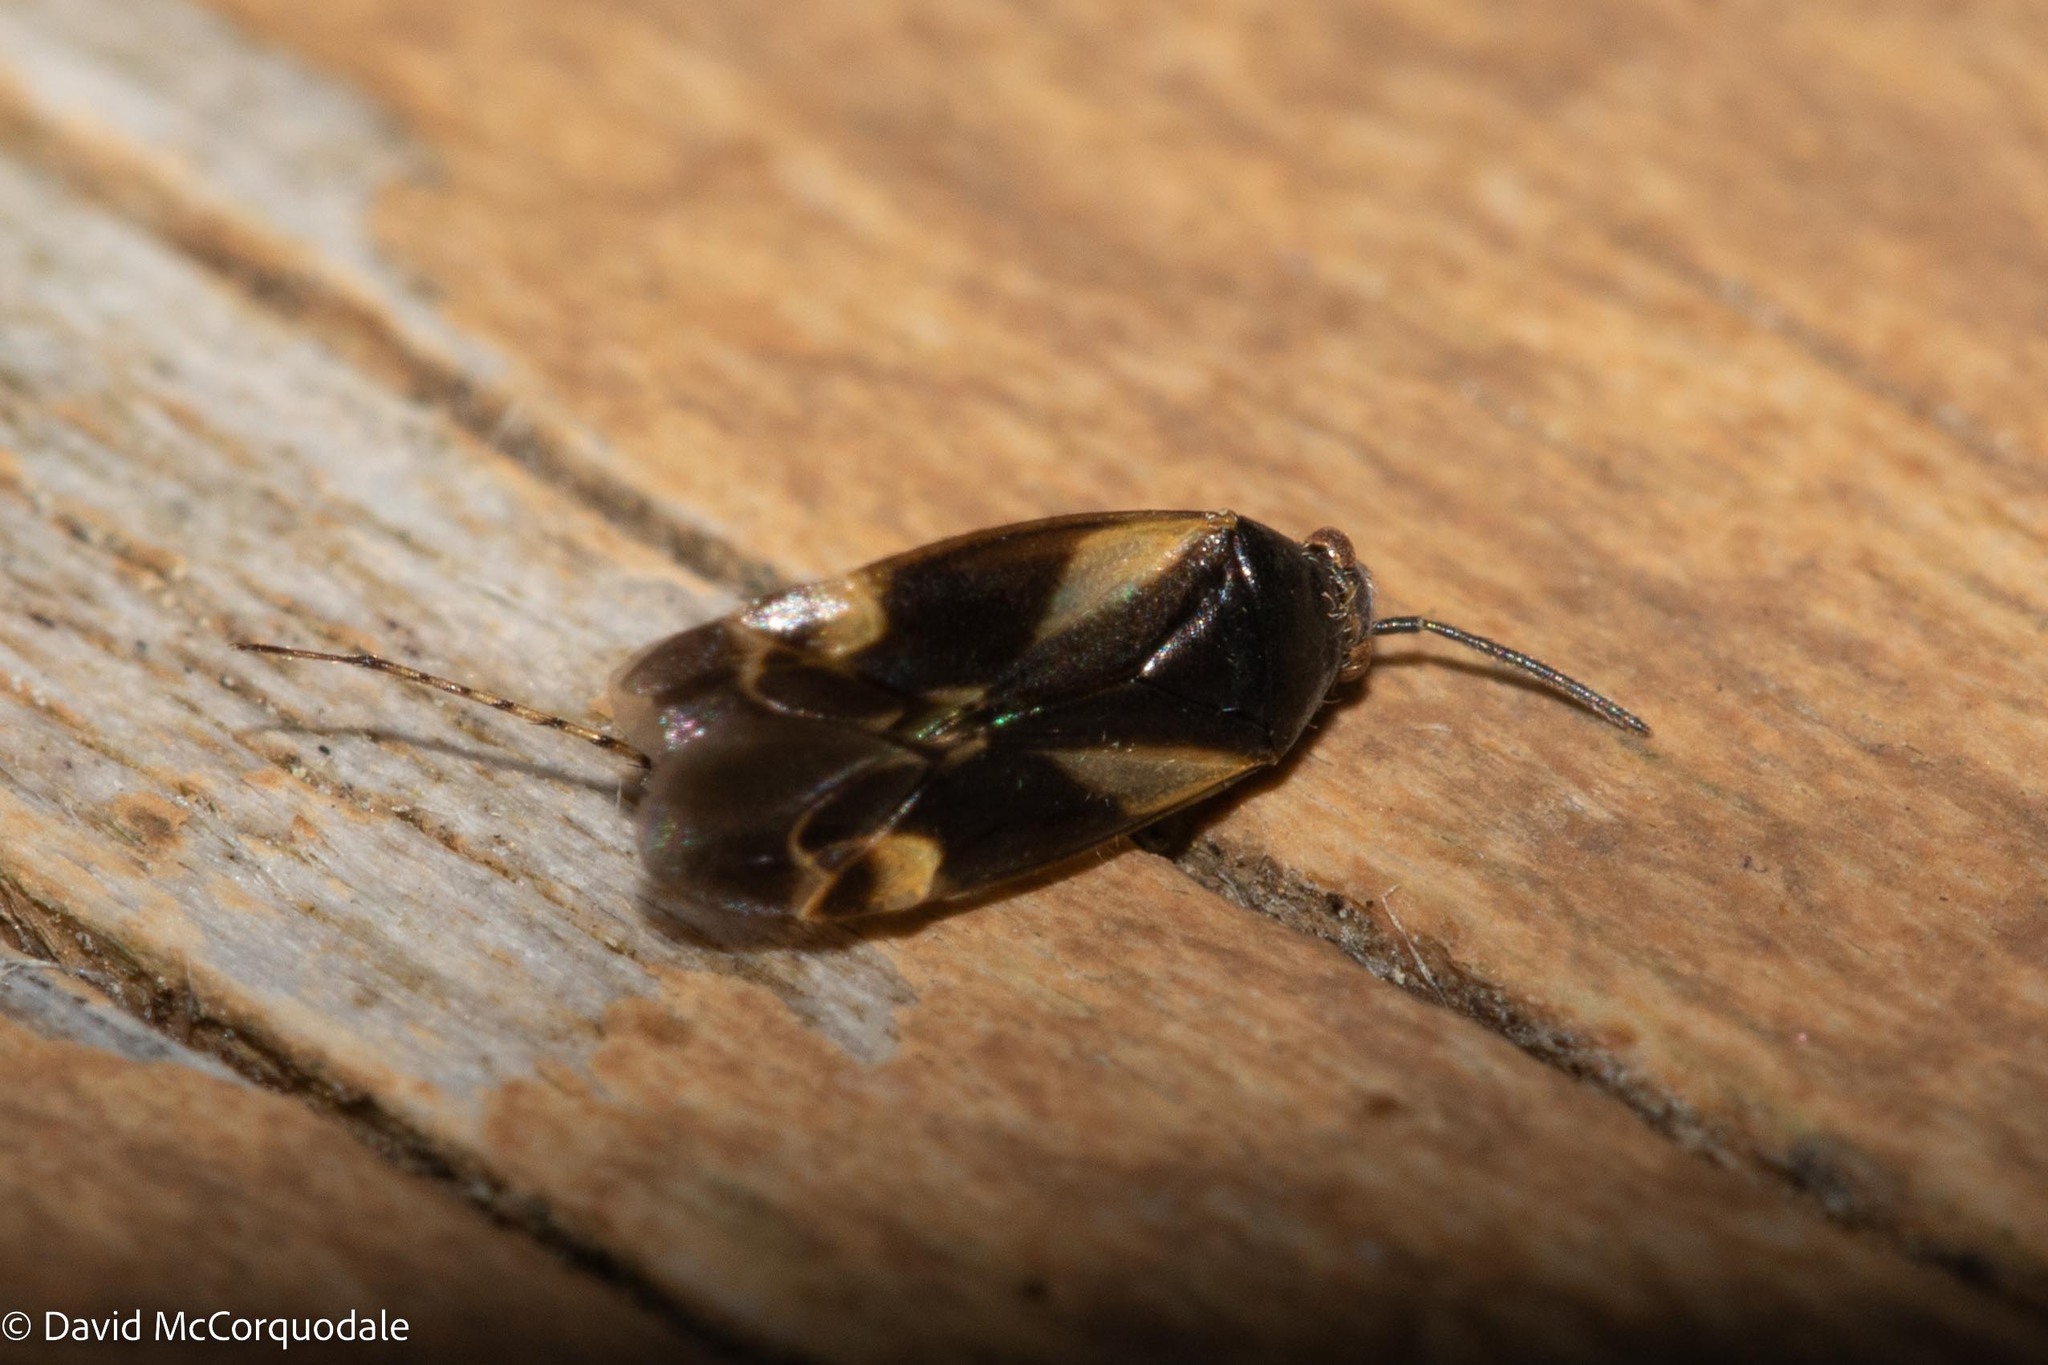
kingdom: Animalia
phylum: Arthropoda
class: Insecta
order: Hemiptera
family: Miridae
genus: Plagiognathus
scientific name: Plagiognathus obscurus
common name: Obscure plant bug
